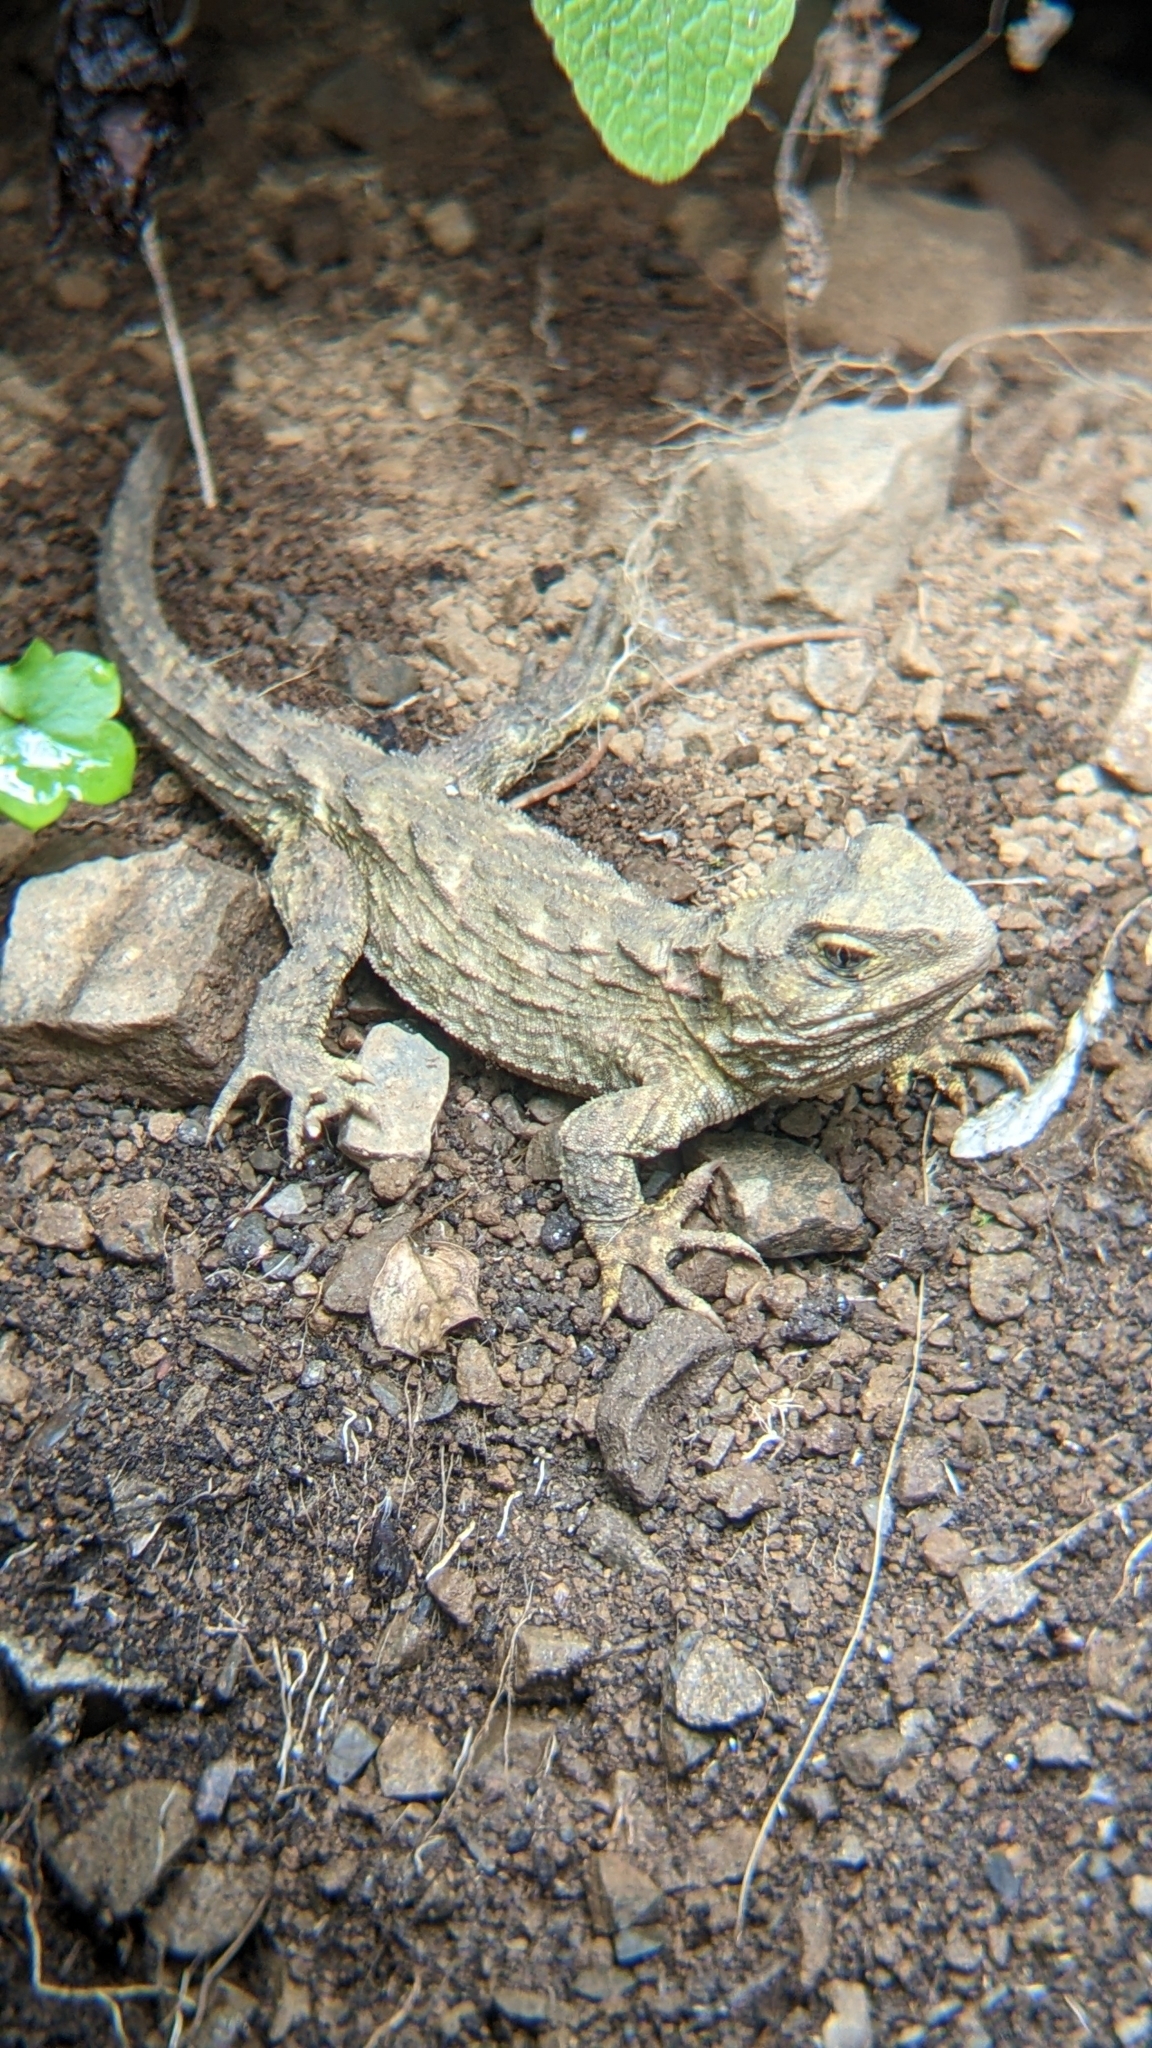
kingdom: Animalia
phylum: Chordata
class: Sphenodontia
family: Sphenodontidae
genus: Sphenodon
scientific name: Sphenodon punctatus
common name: Tuatara
